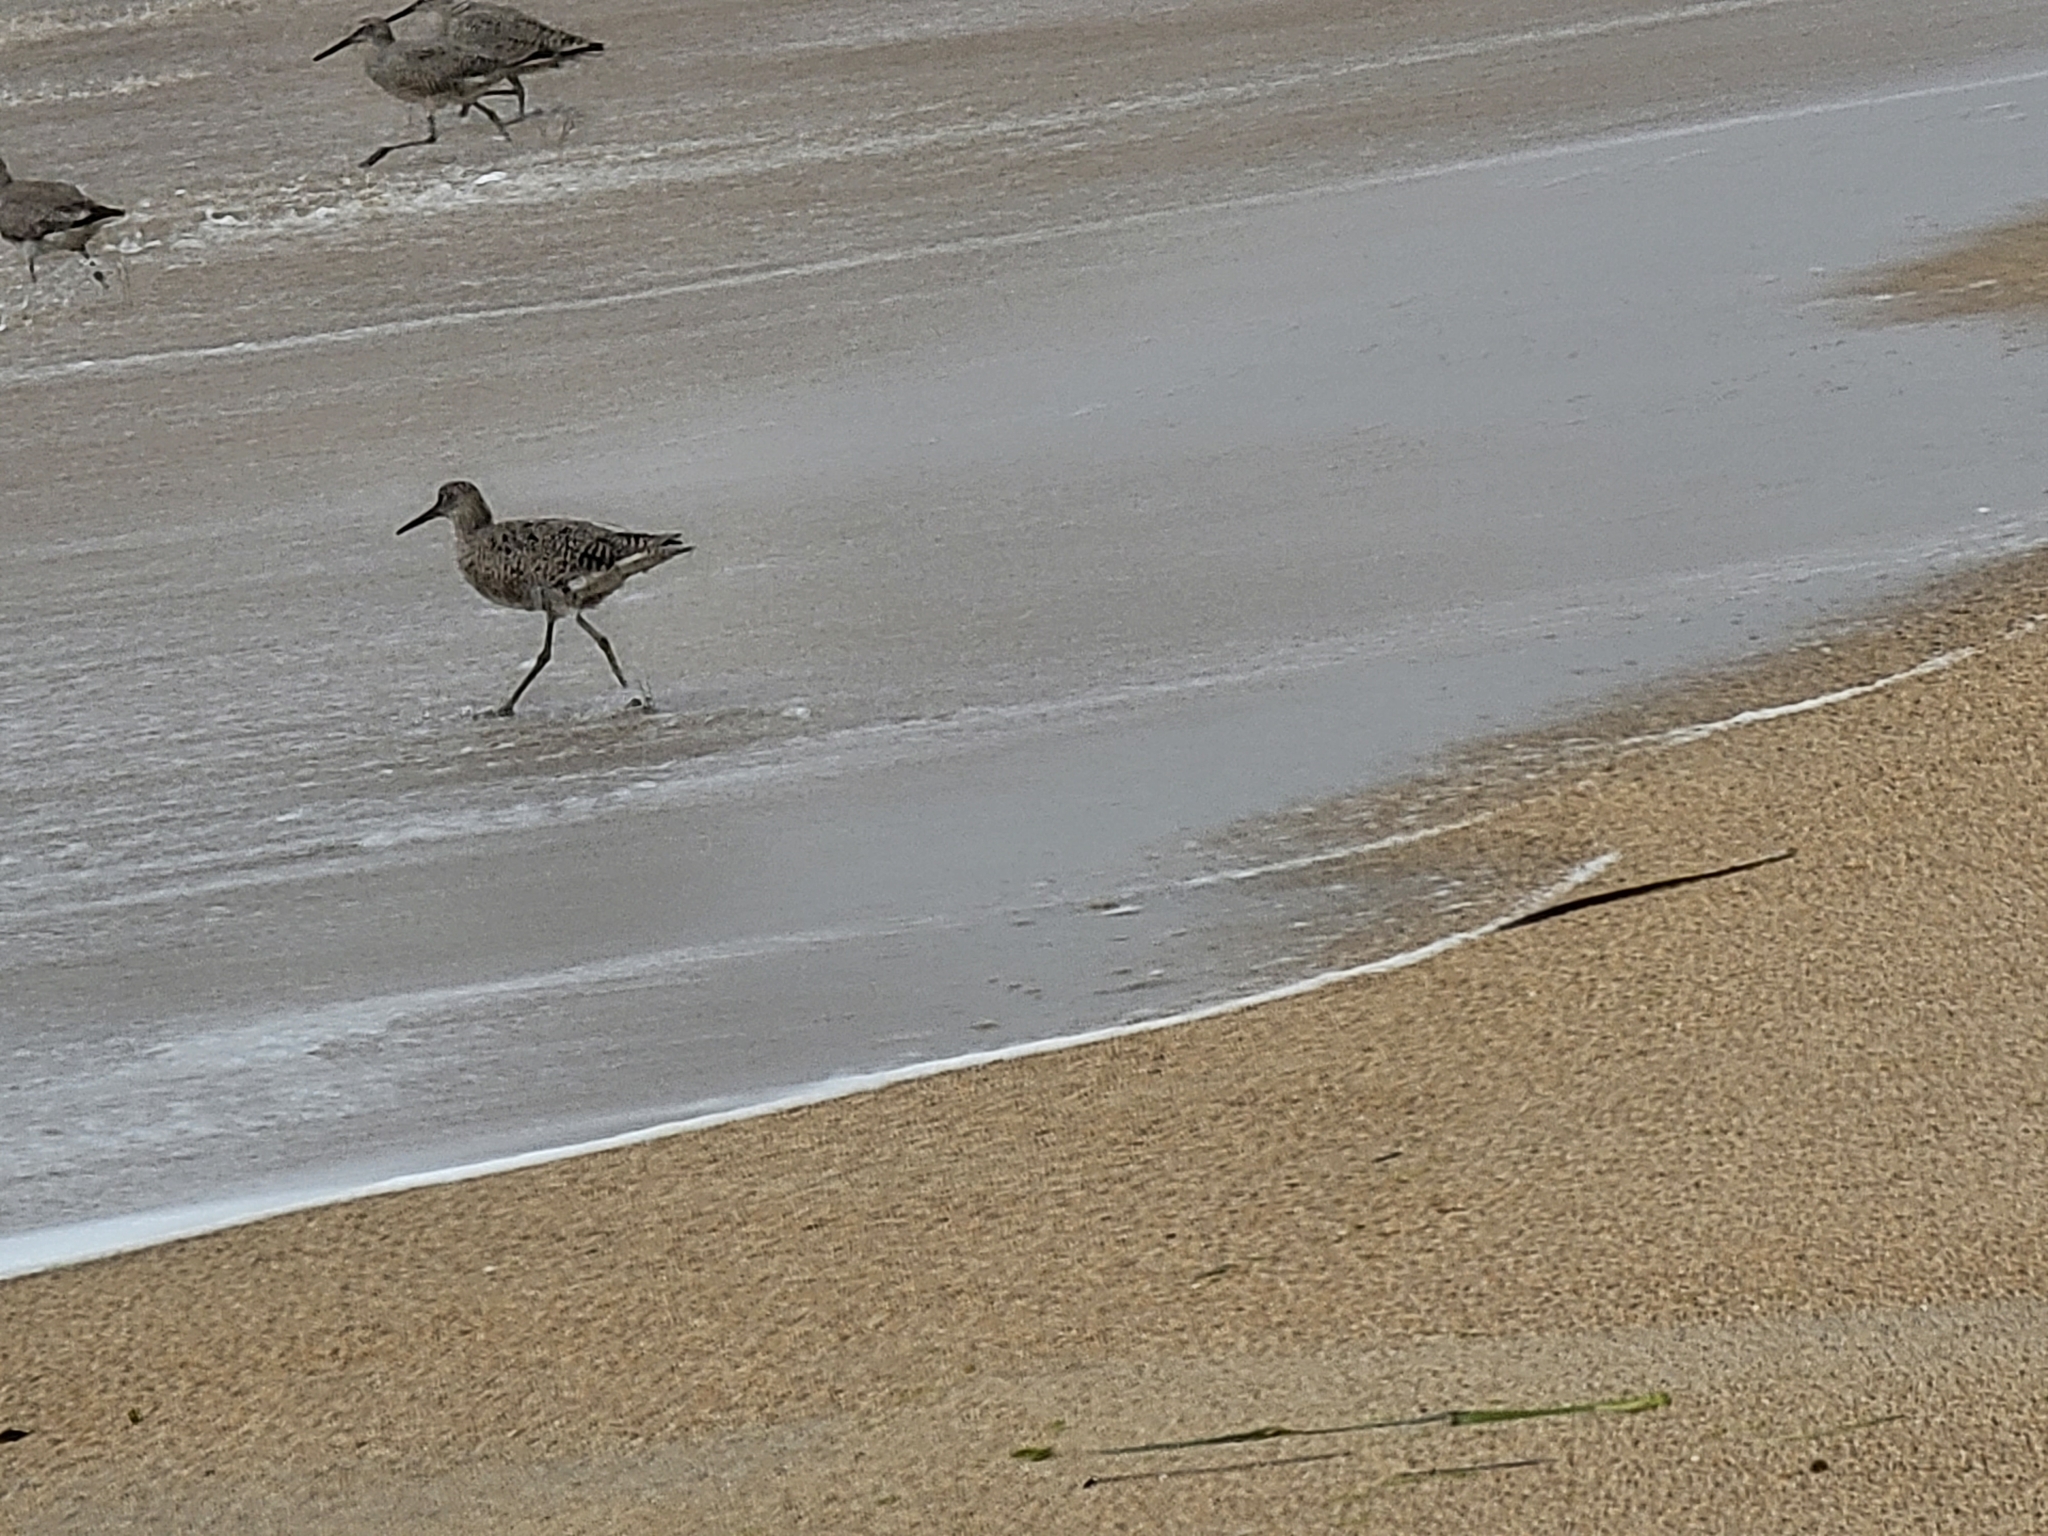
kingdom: Animalia
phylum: Chordata
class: Aves
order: Charadriiformes
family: Scolopacidae
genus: Tringa
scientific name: Tringa semipalmata
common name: Willet
